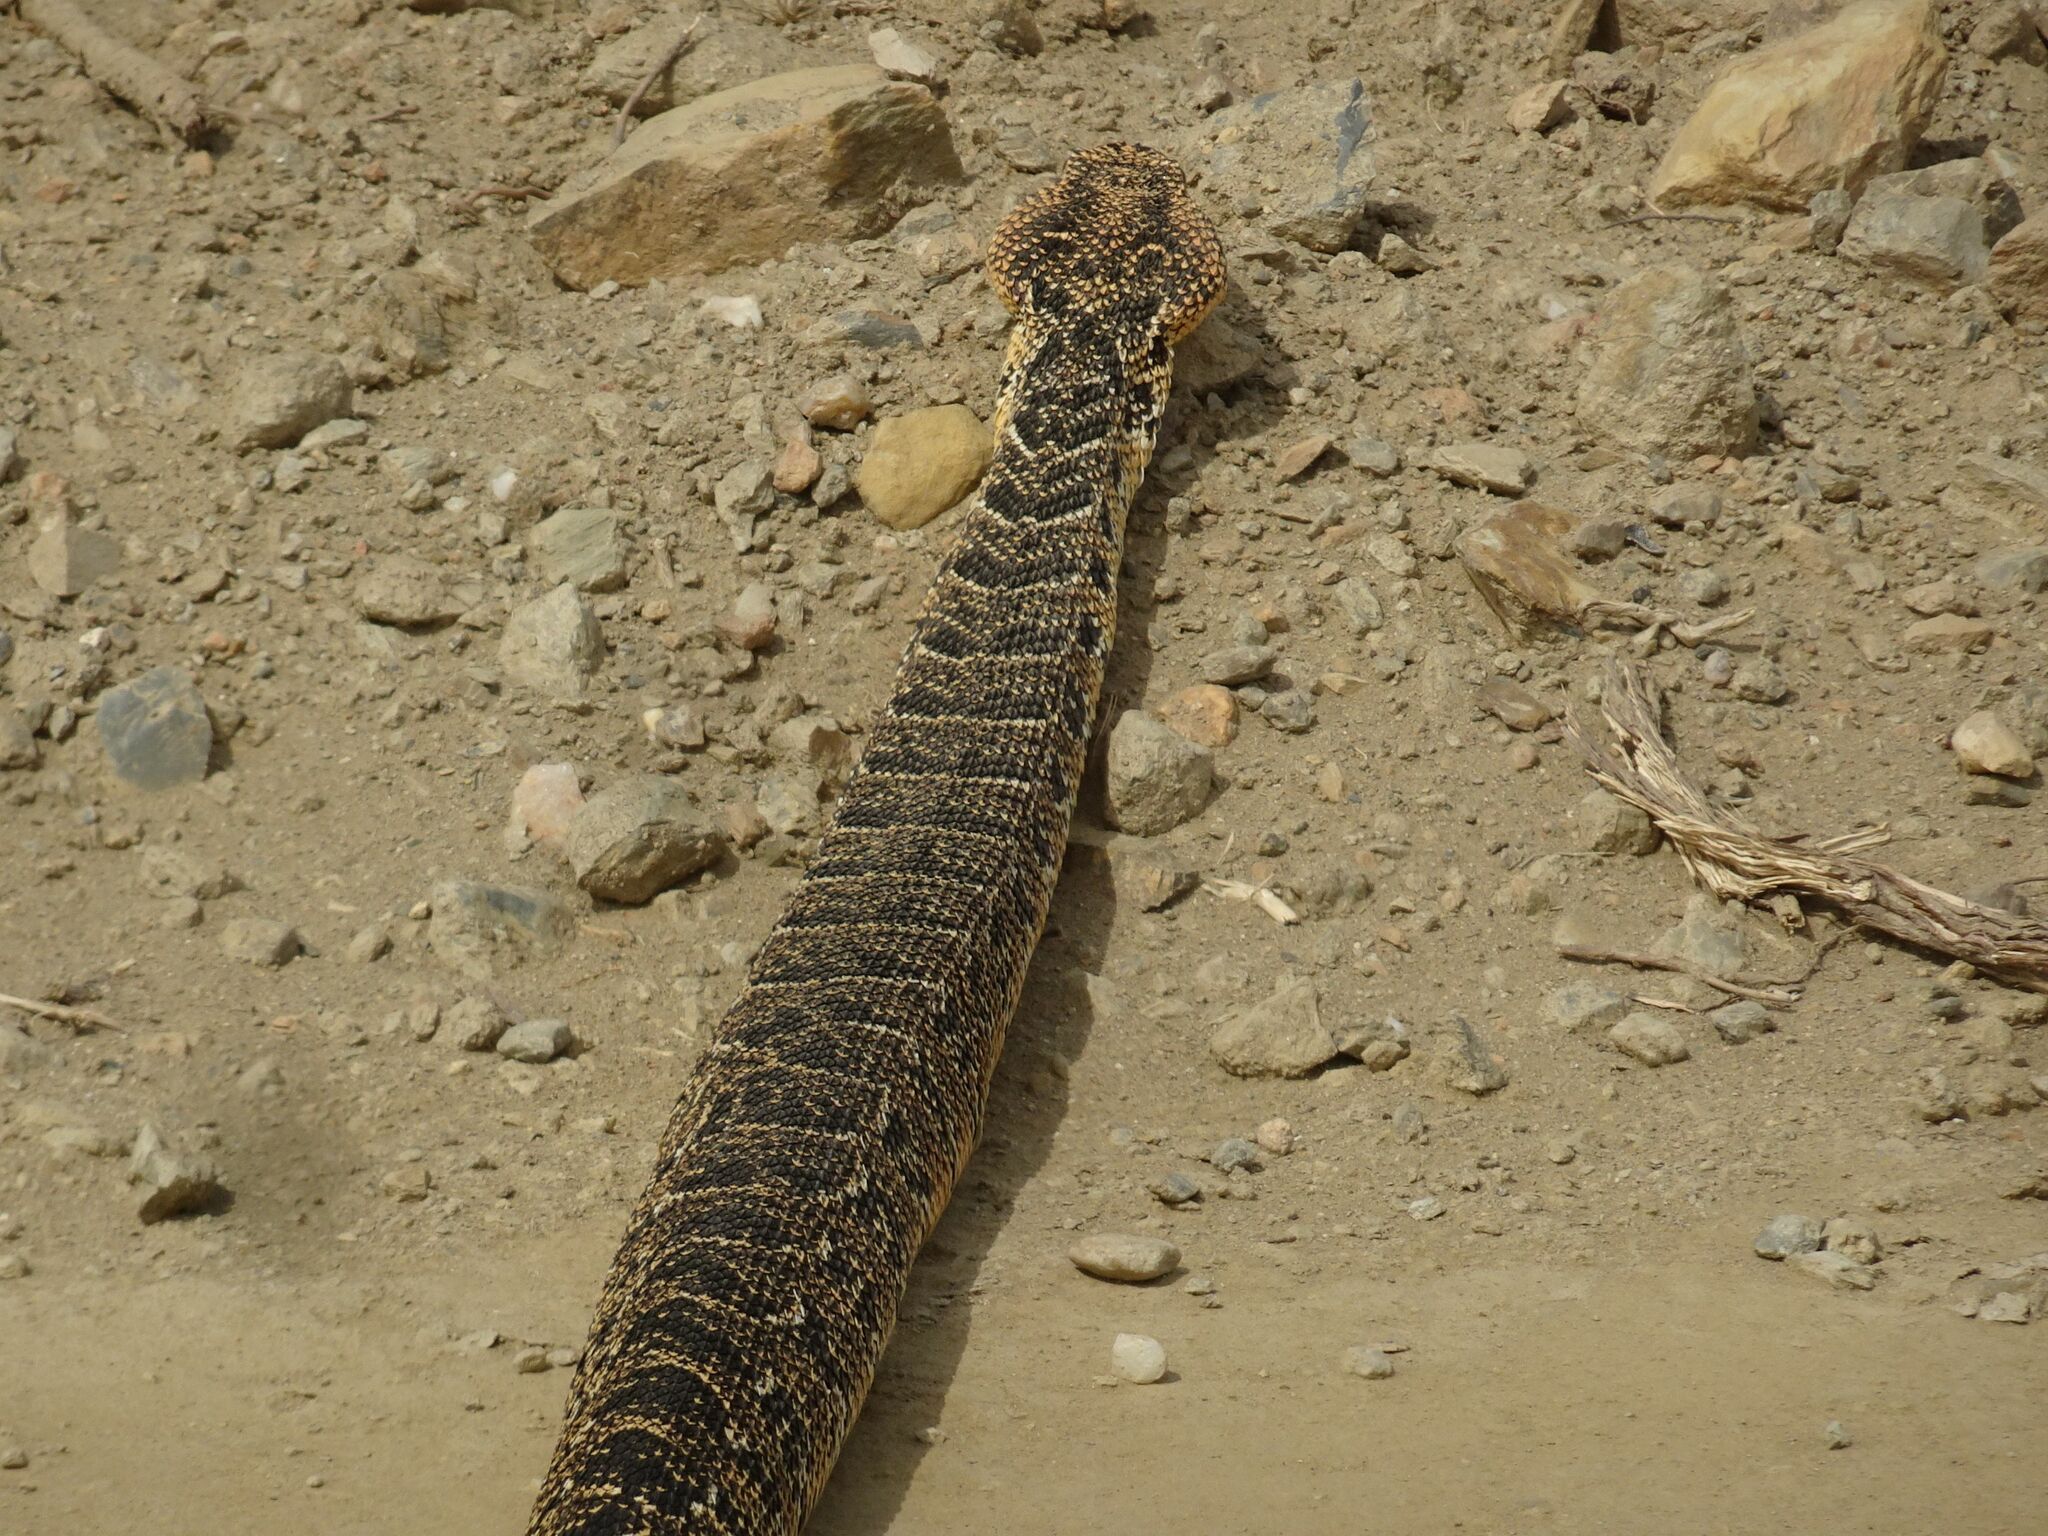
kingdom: Animalia
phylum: Chordata
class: Squamata
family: Viperidae
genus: Bitis
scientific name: Bitis arietans
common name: Puff adder
